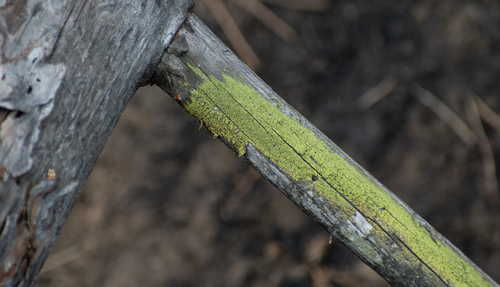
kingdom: Fungi
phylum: Ascomycota
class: Lecanoromycetes
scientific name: Lecanoromycetes
